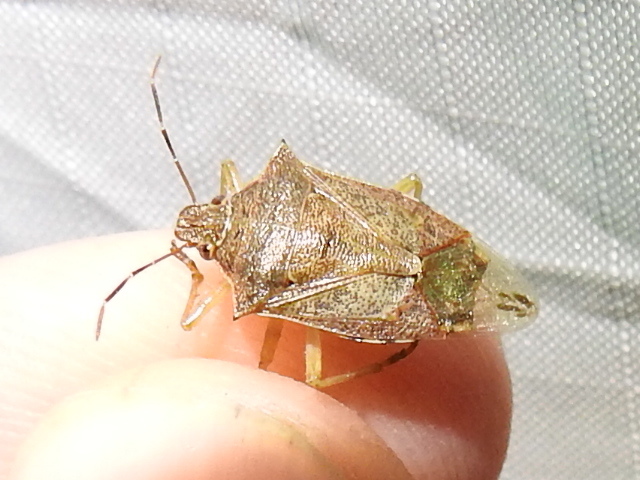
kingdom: Animalia
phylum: Arthropoda
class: Insecta
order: Hemiptera
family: Pentatomidae
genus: Podisus
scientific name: Podisus maculiventris
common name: Spined soldier bug
